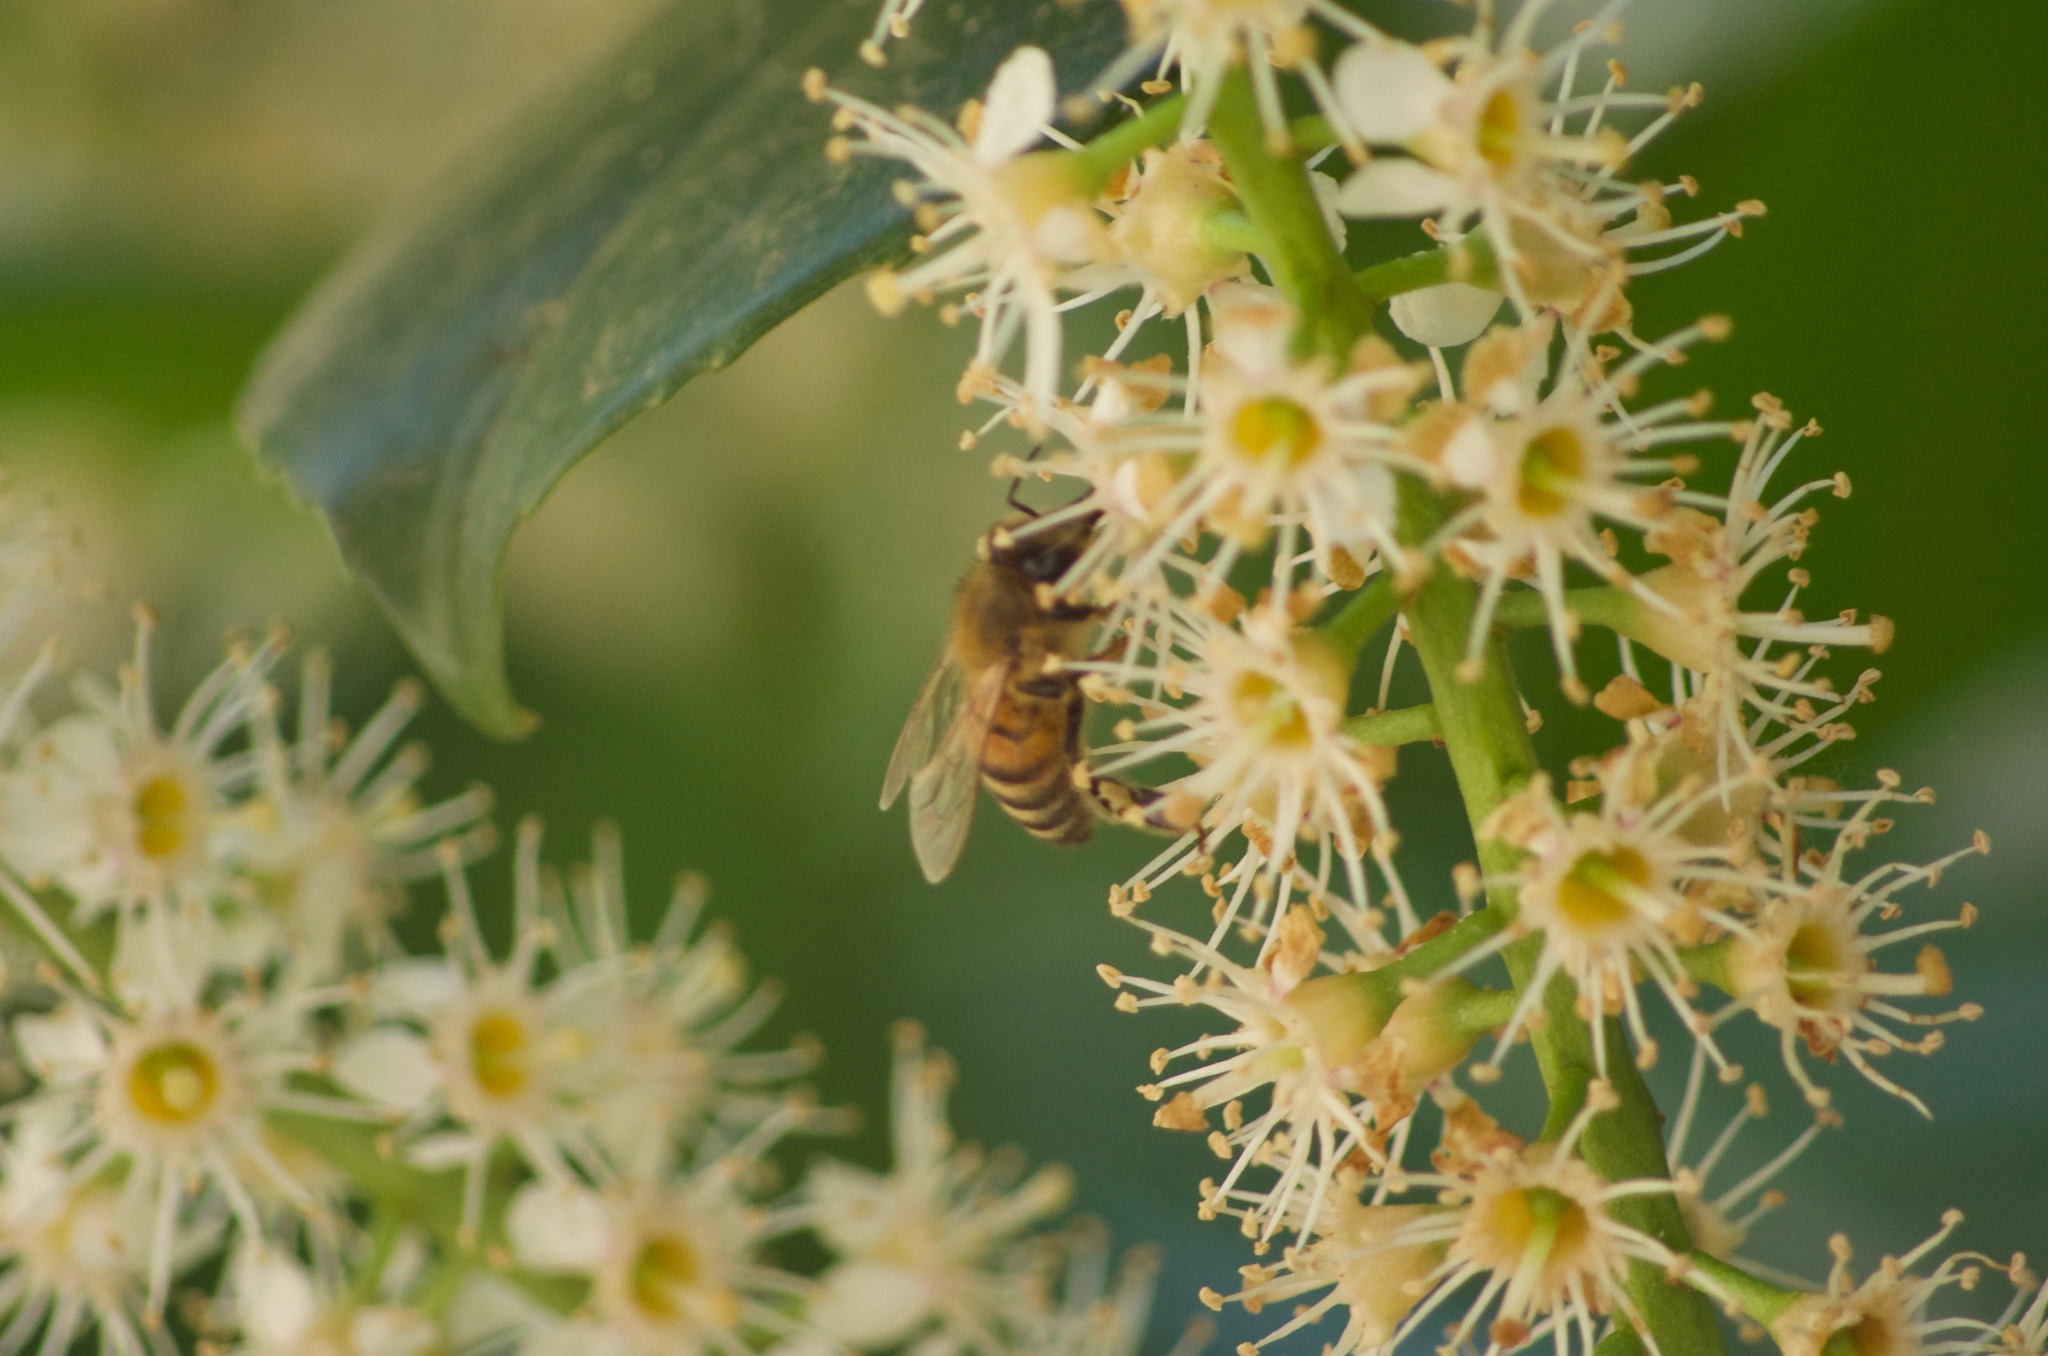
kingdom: Animalia
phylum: Arthropoda
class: Insecta
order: Hymenoptera
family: Apidae
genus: Apis
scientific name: Apis mellifera
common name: Honey bee
